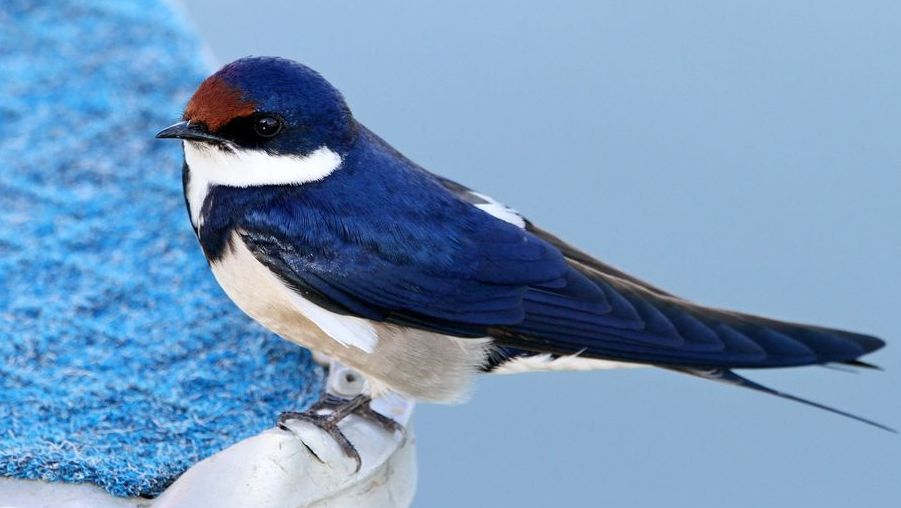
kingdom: Animalia
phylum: Chordata
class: Aves
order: Passeriformes
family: Hirundinidae
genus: Hirundo
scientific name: Hirundo albigularis
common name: White-throated swallow
